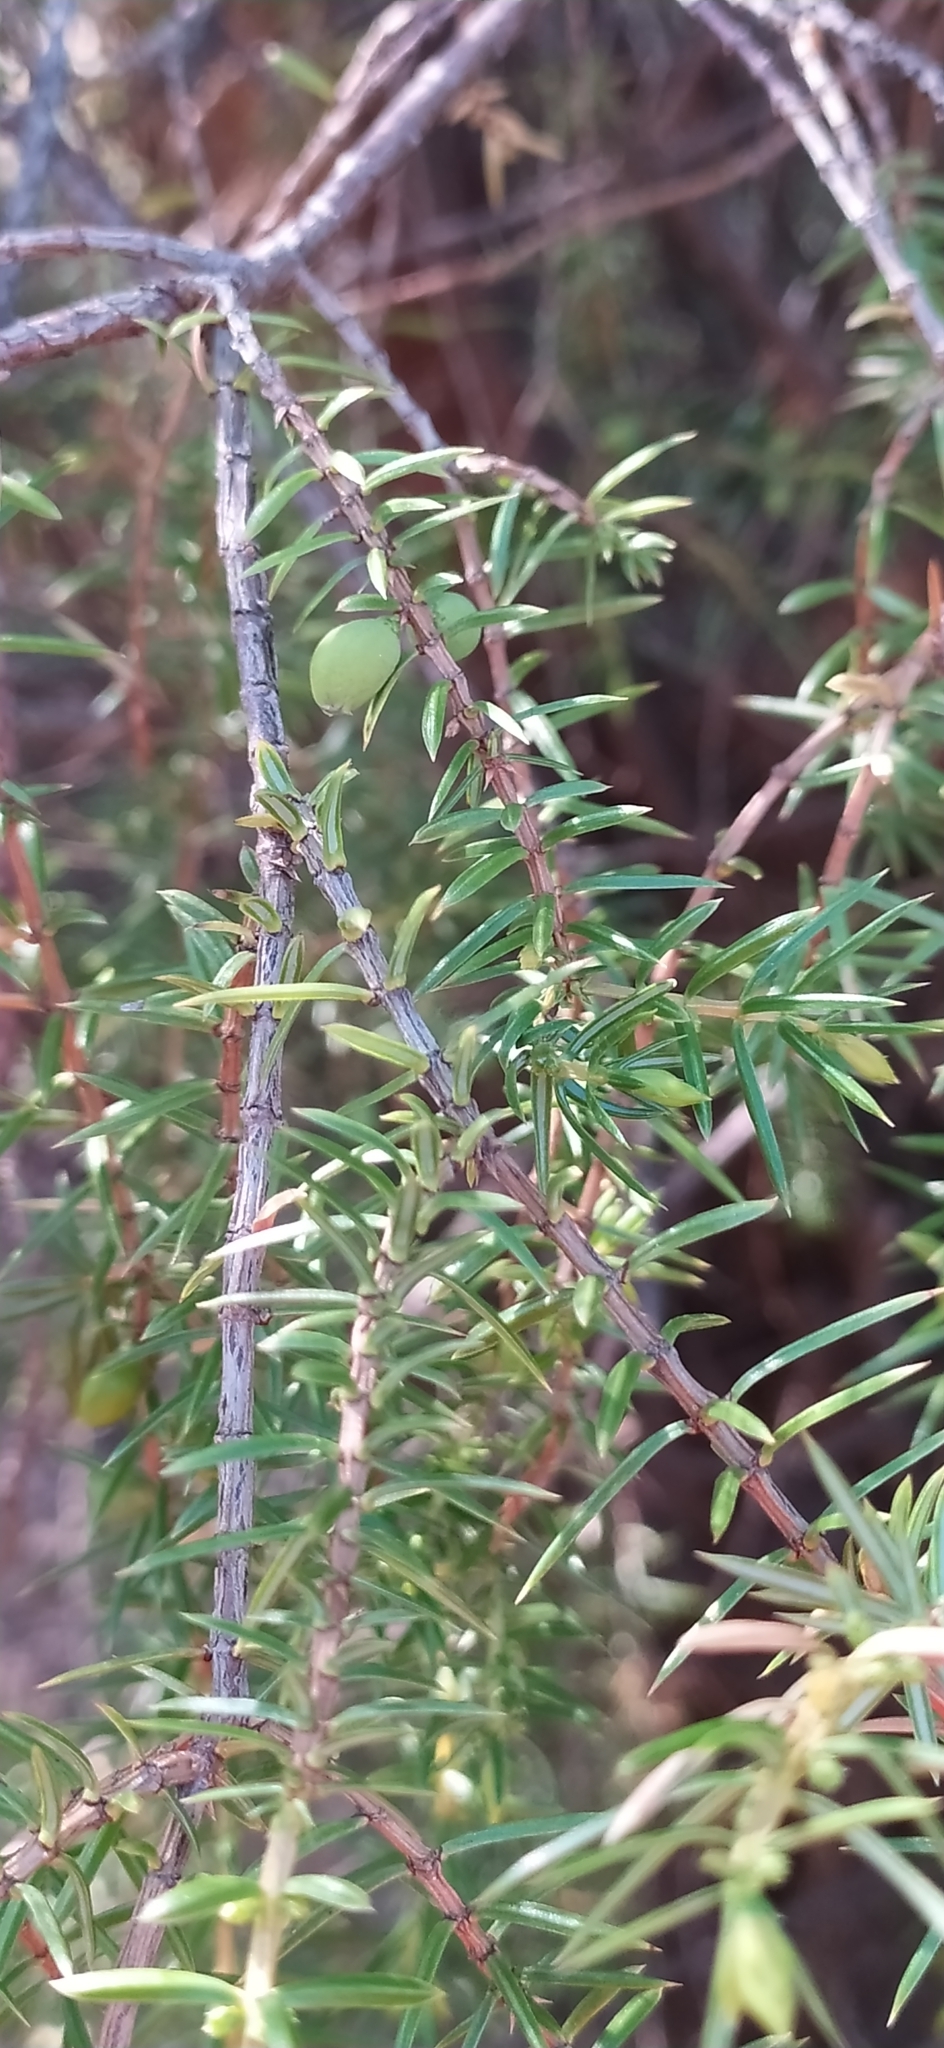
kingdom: Plantae
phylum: Tracheophyta
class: Pinopsida
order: Pinales
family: Cupressaceae
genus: Juniperus
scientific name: Juniperus communis
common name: Common juniper
